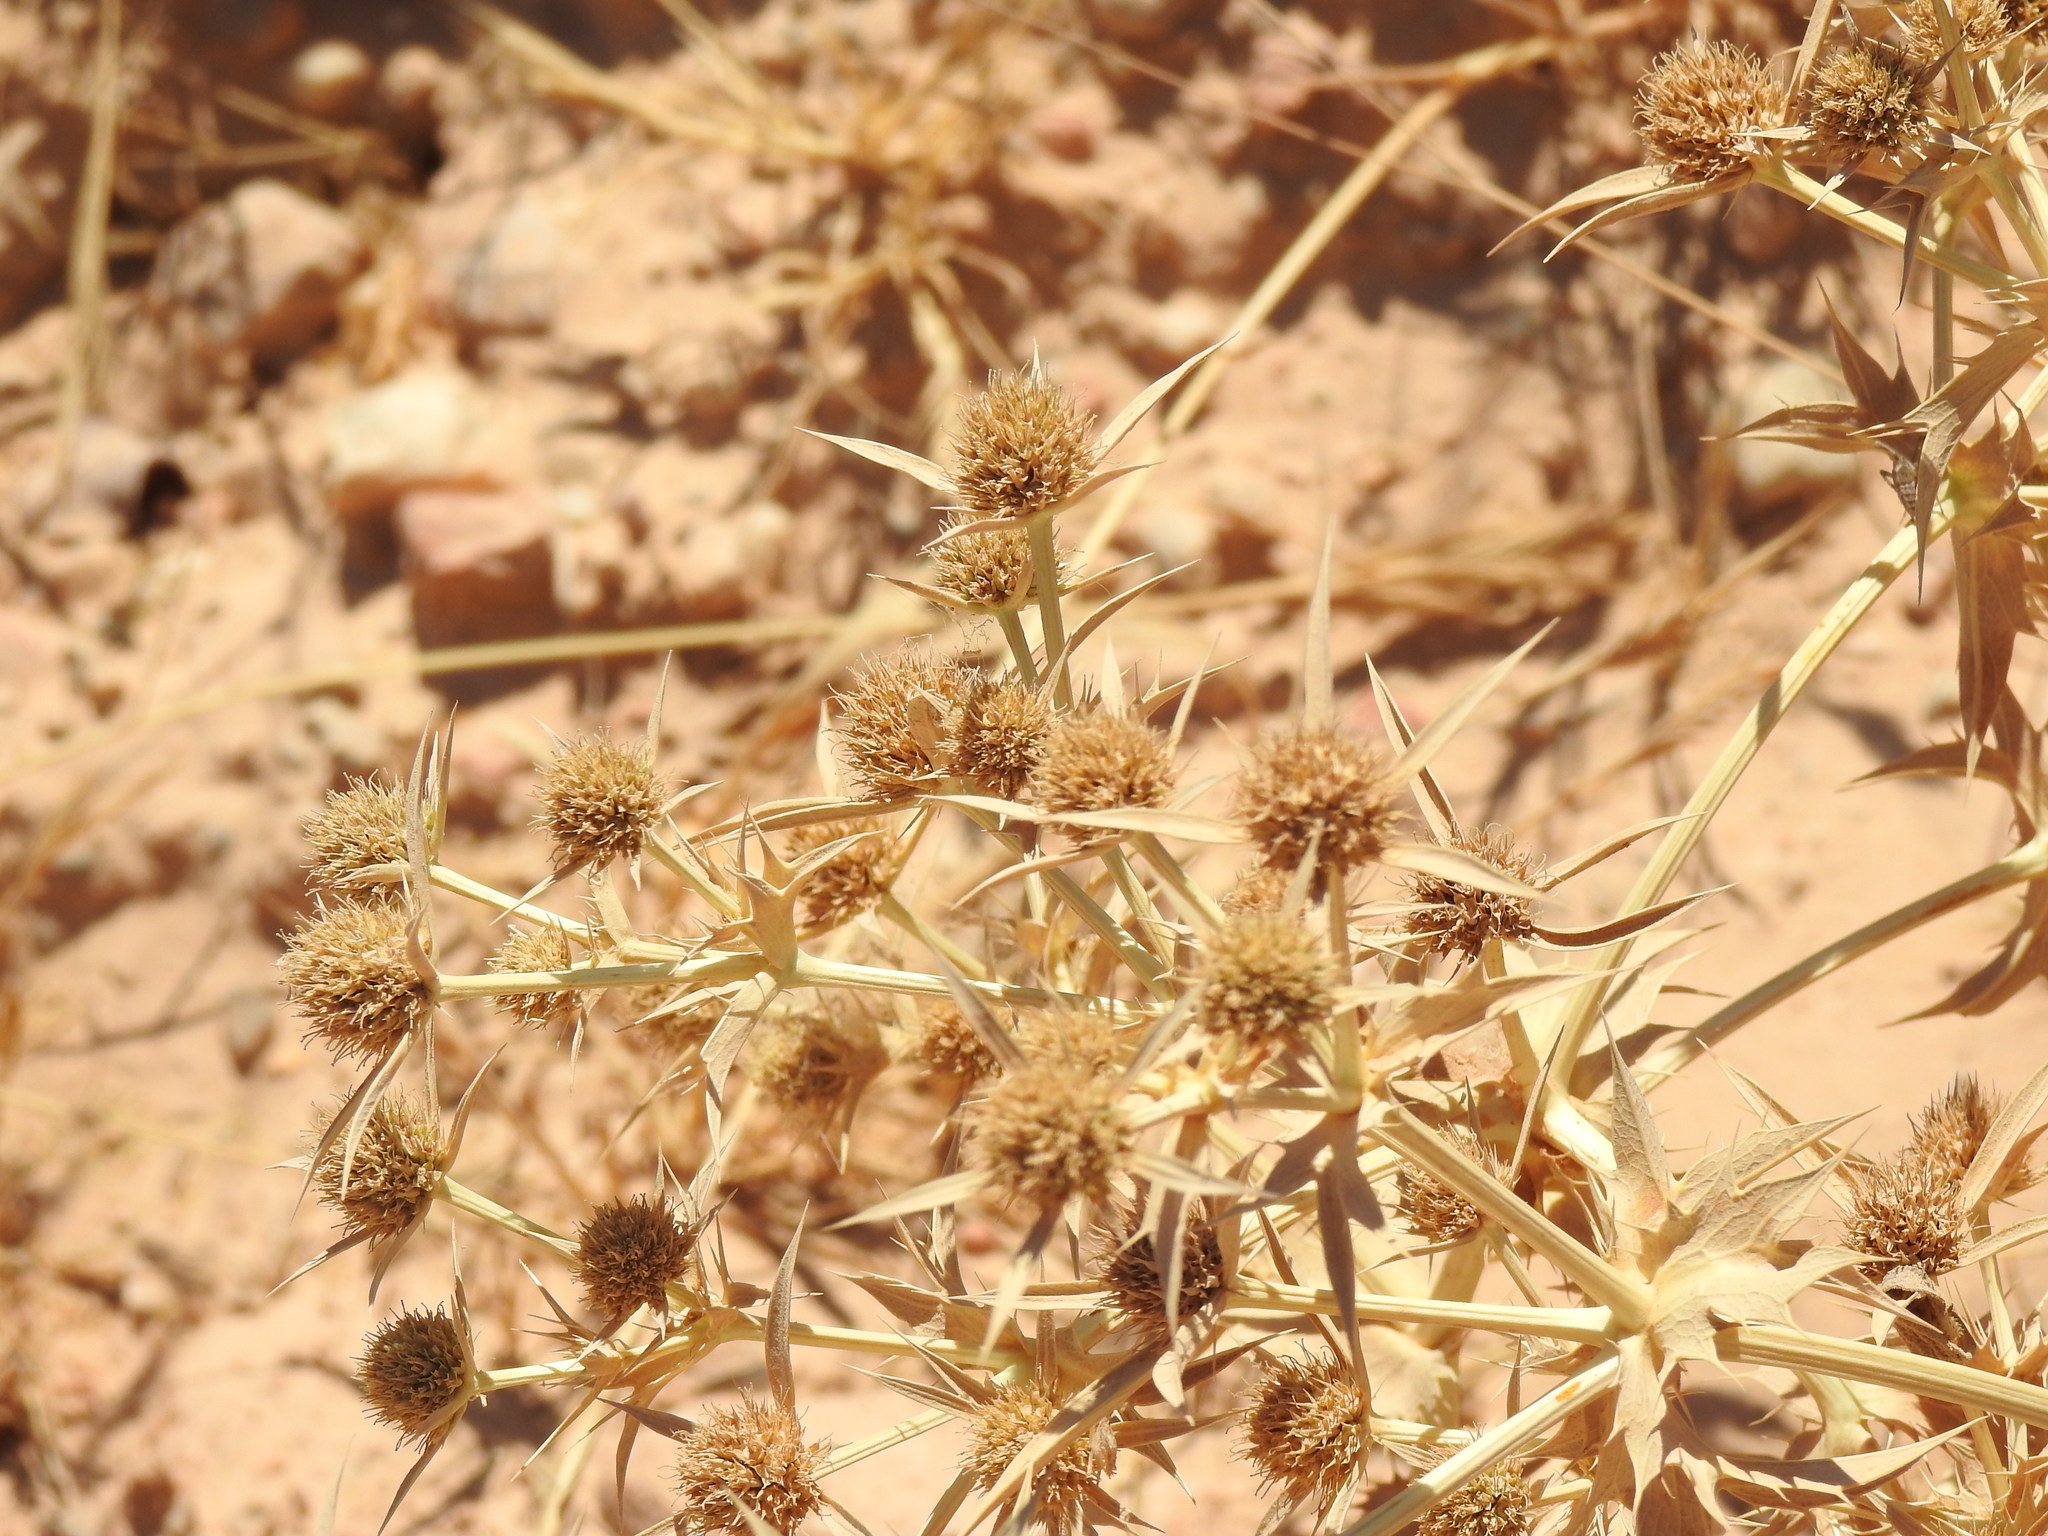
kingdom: Plantae
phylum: Tracheophyta
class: Magnoliopsida
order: Apiales
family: Apiaceae
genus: Eryngium
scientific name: Eryngium campestre
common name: Field eryngo
